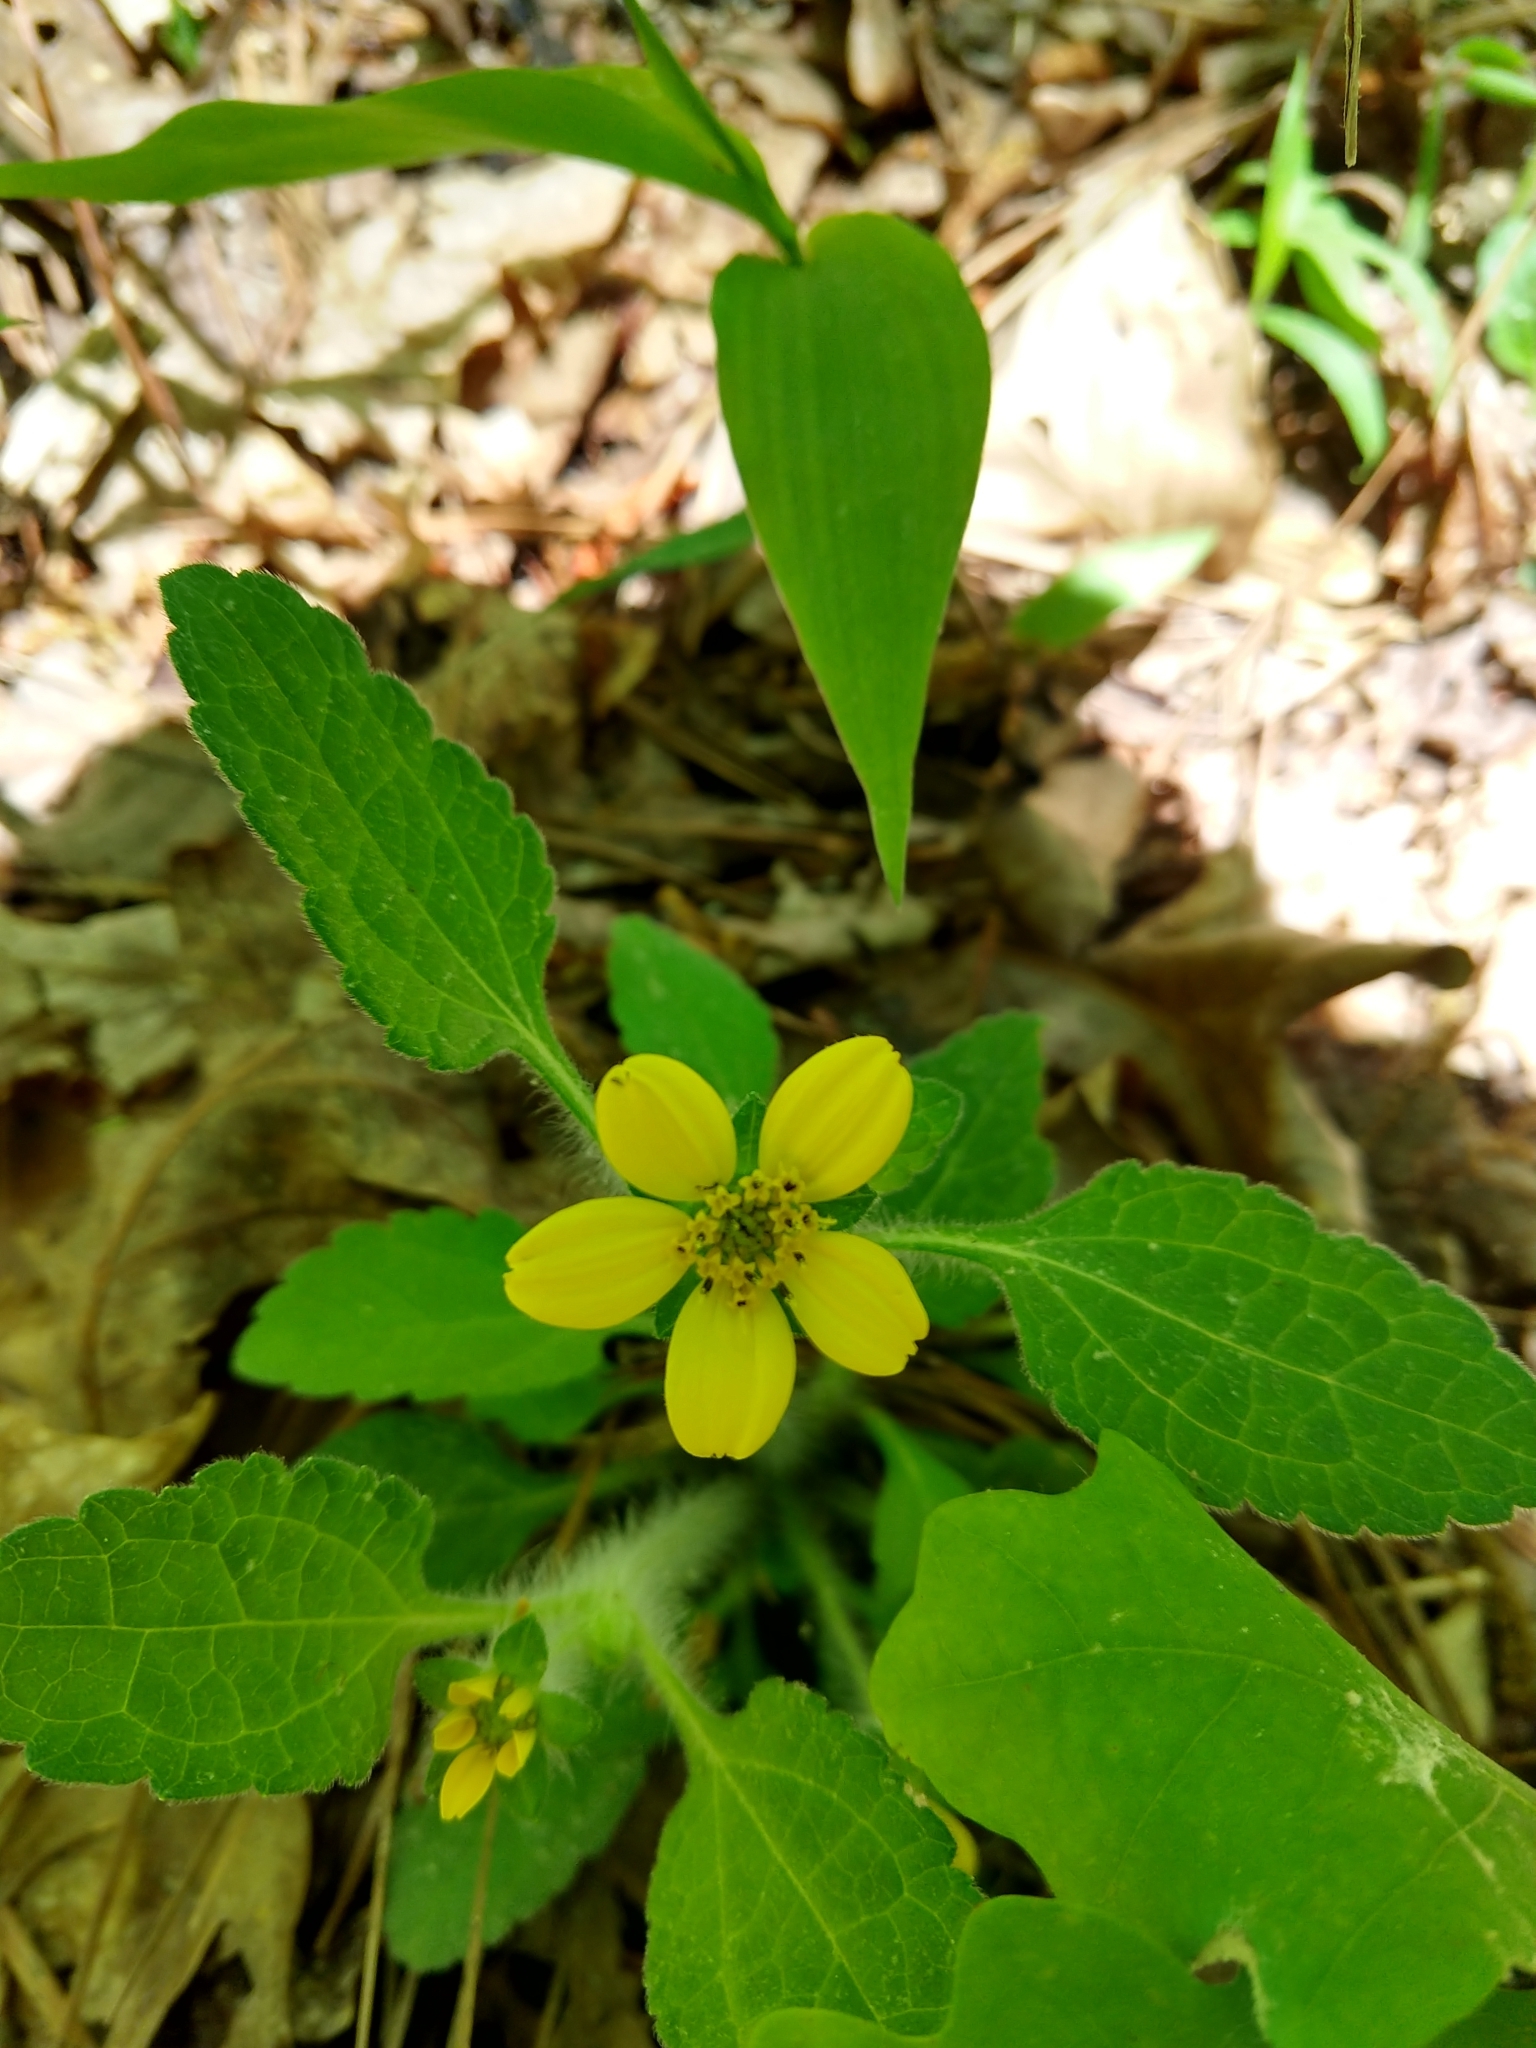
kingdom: Plantae
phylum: Tracheophyta
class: Magnoliopsida
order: Asterales
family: Asteraceae
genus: Chrysogonum
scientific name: Chrysogonum virginianum
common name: Golden-knee
